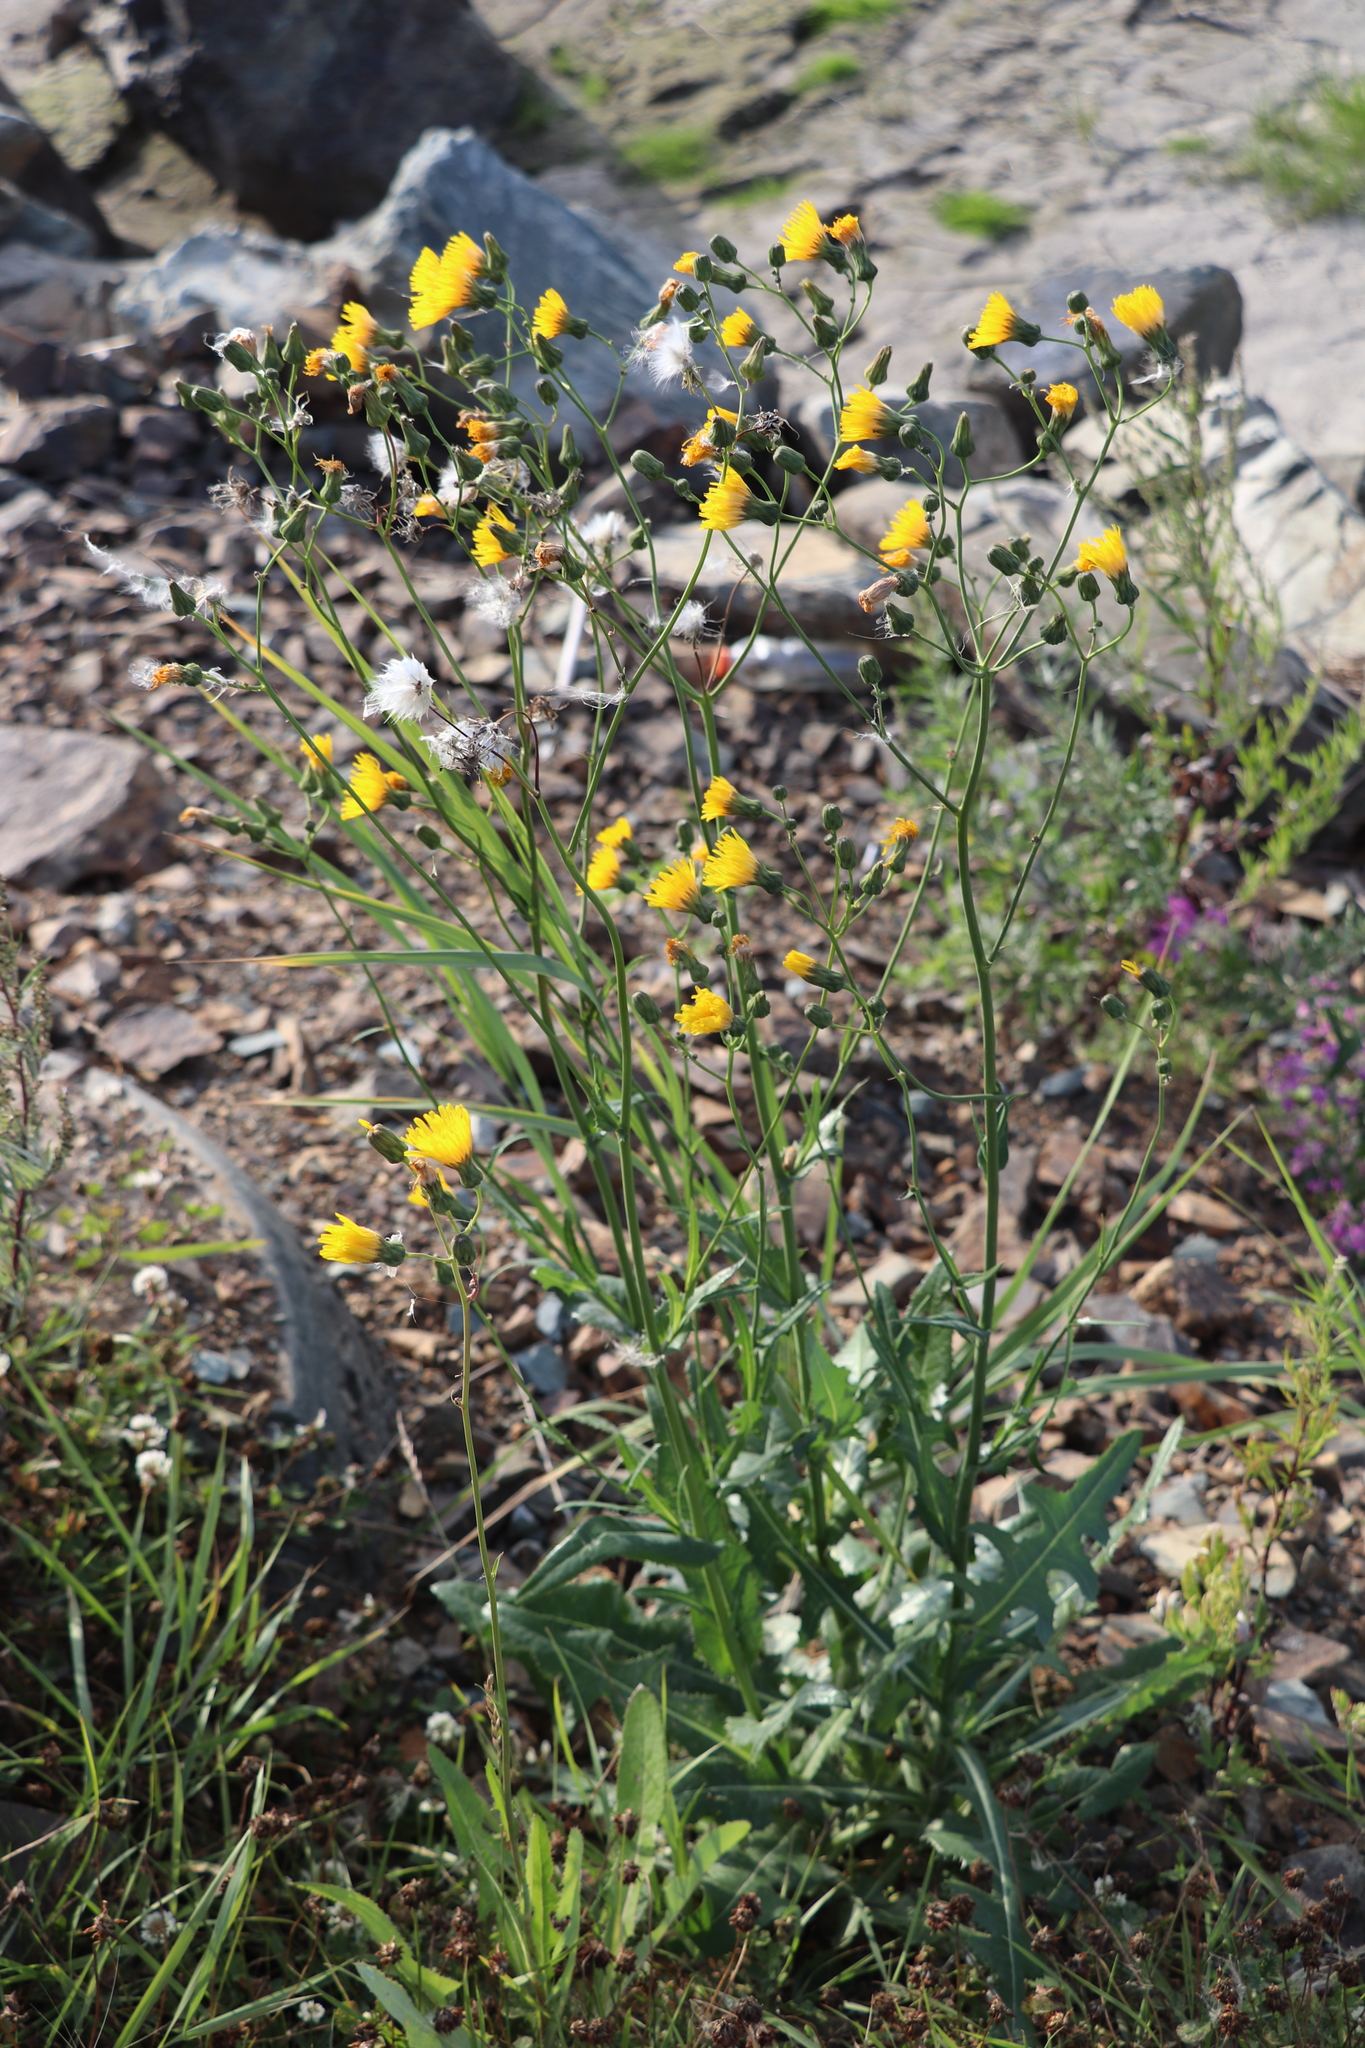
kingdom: Plantae
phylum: Tracheophyta
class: Magnoliopsida
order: Asterales
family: Asteraceae
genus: Sonchus
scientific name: Sonchus arvensis
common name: Perennial sow-thistle
